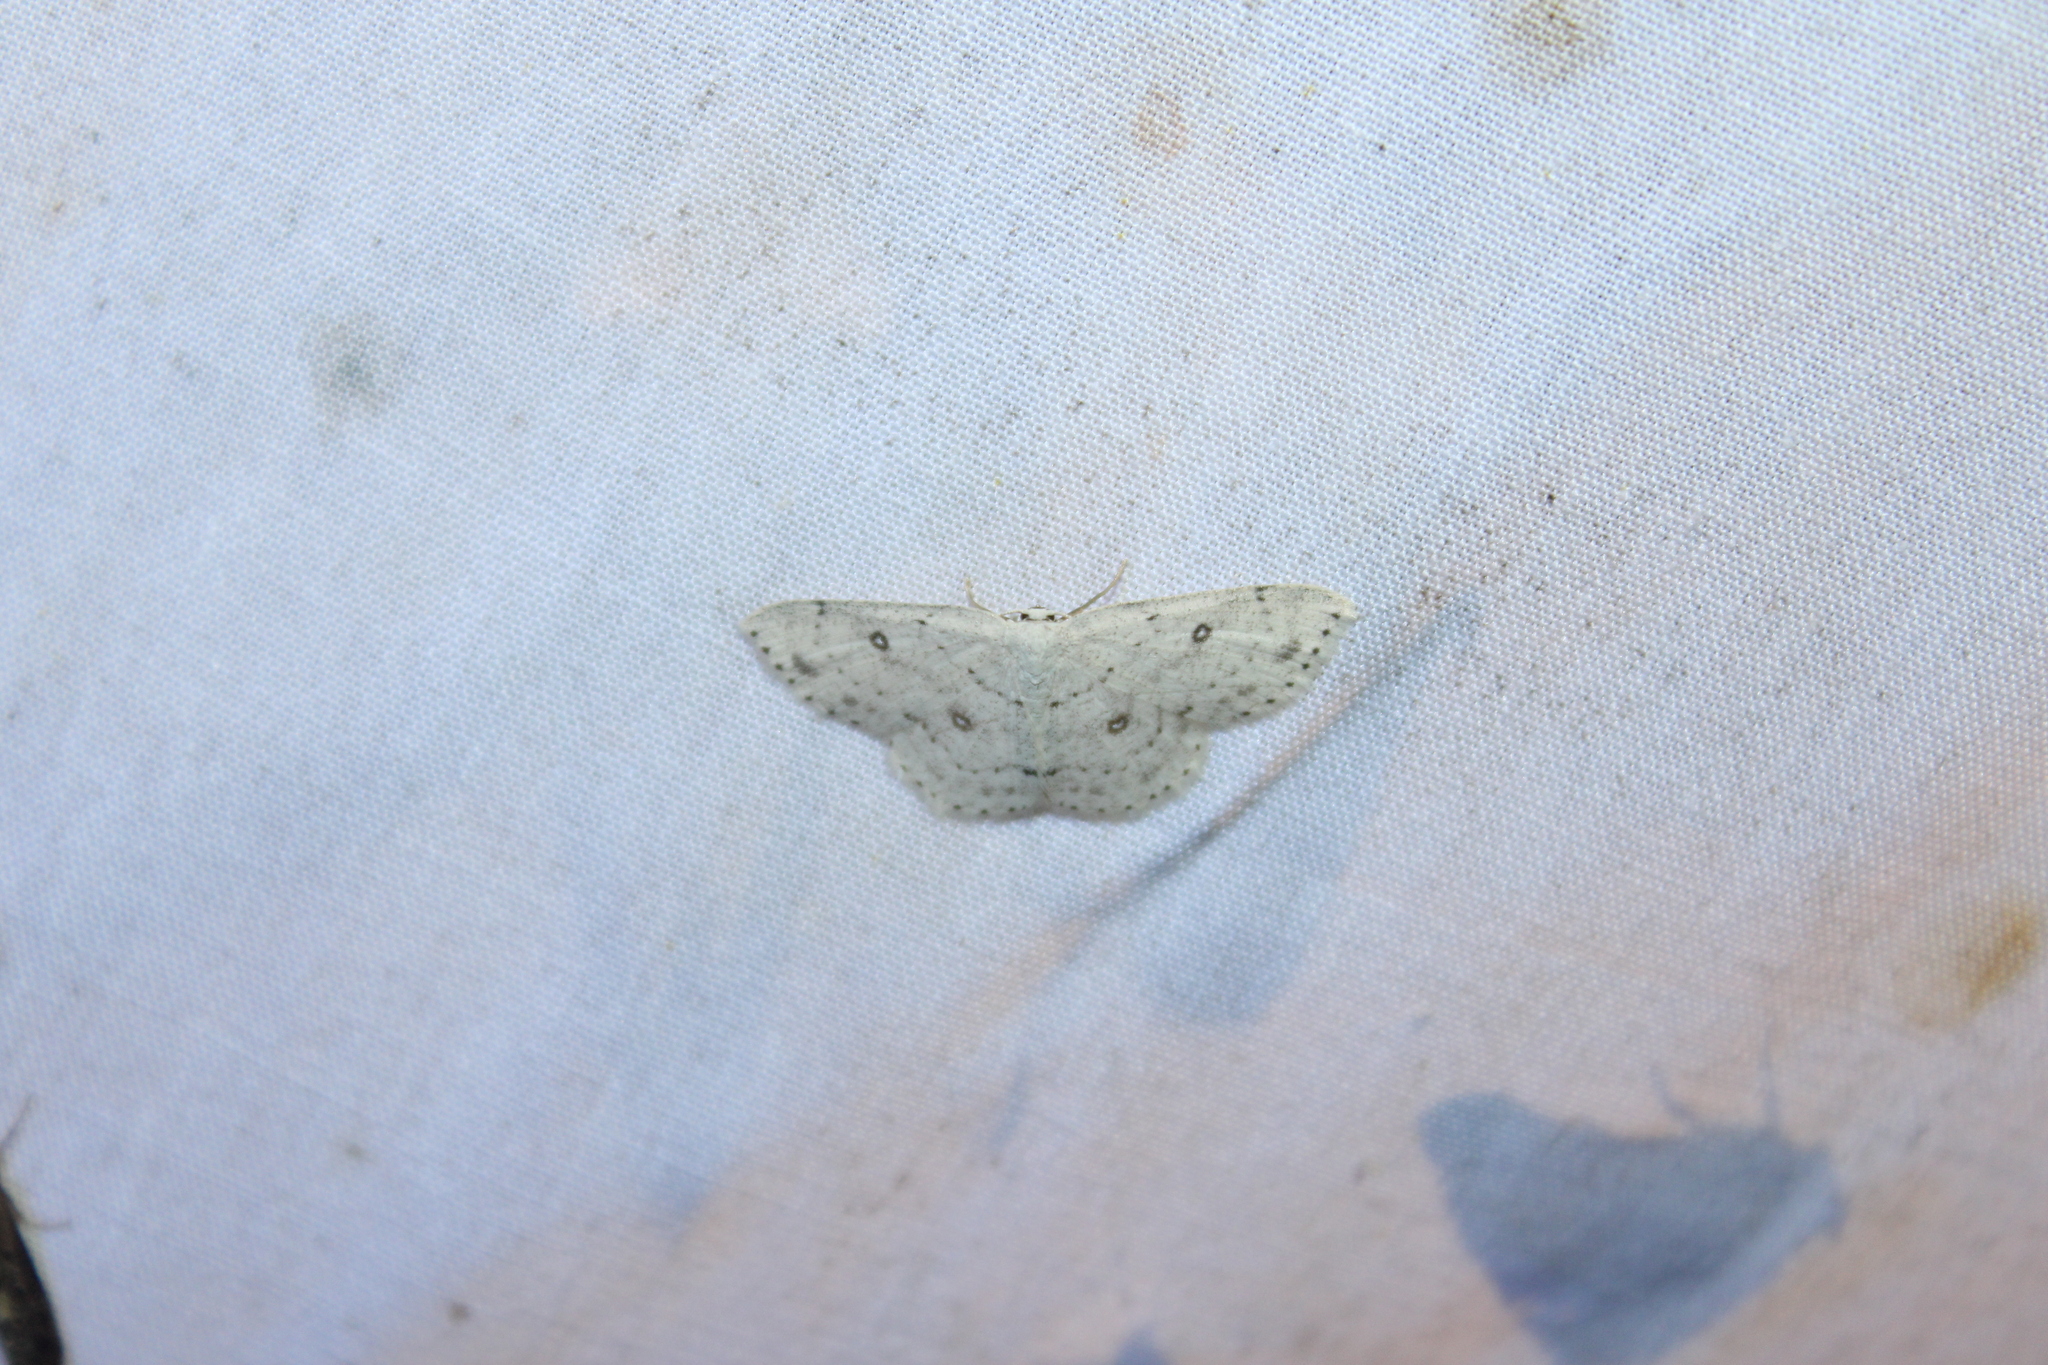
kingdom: Animalia
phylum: Arthropoda
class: Insecta
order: Lepidoptera
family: Geometridae
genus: Cyclophora
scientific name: Cyclophora pendulinaria
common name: Sweet fern geometer
